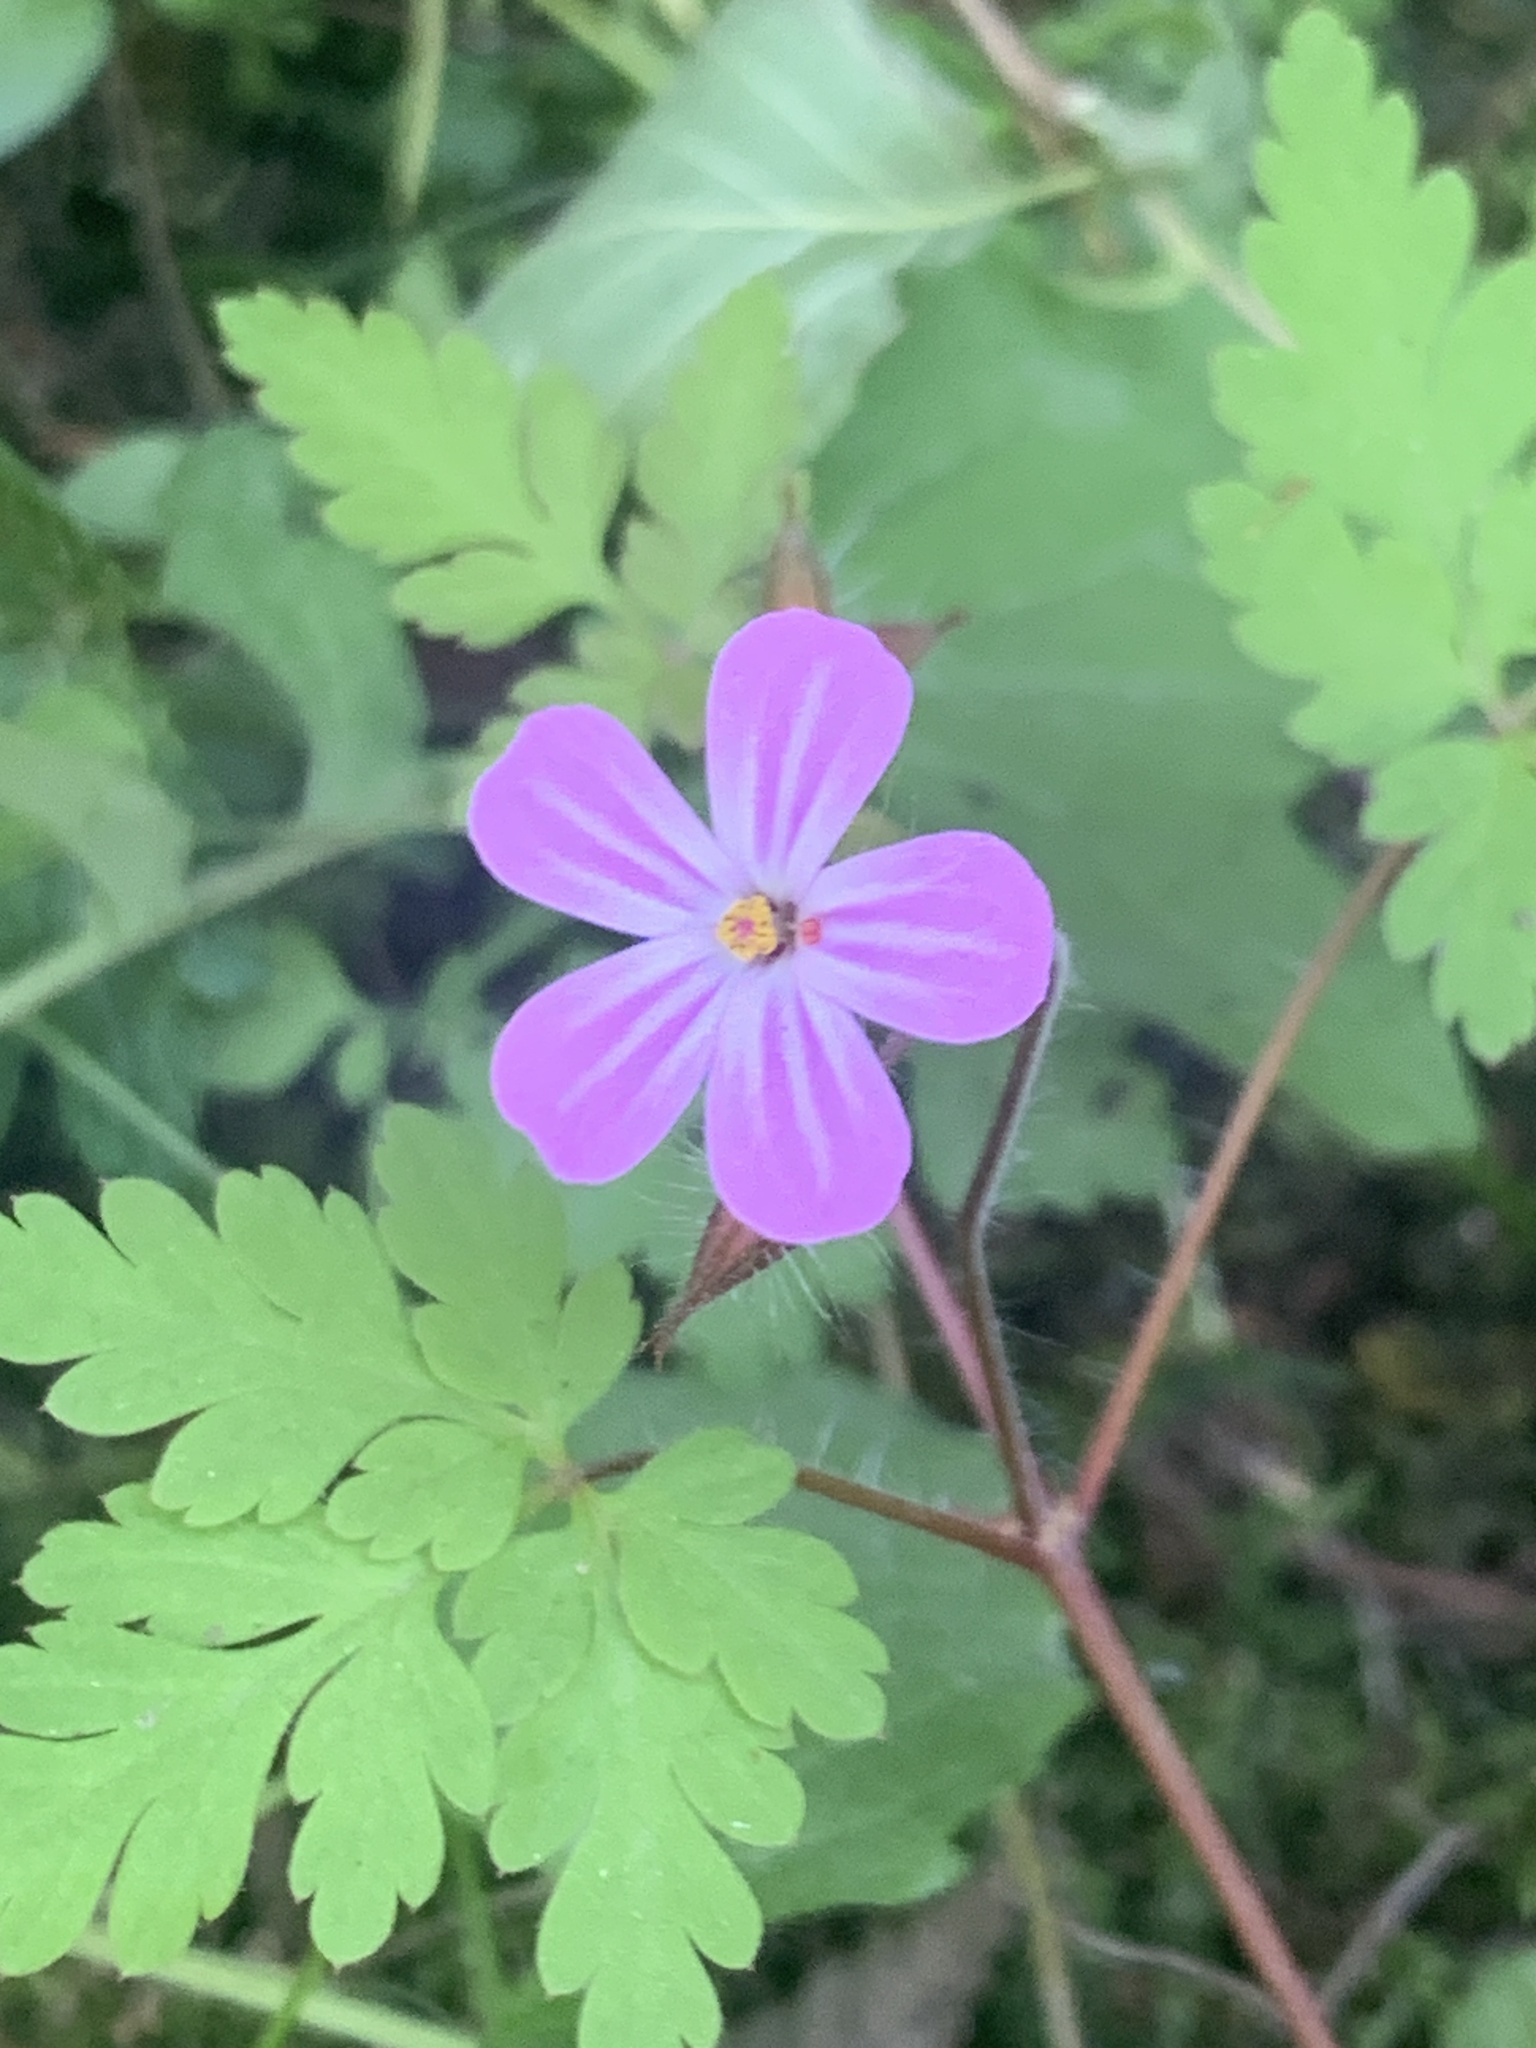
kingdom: Plantae
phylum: Tracheophyta
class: Magnoliopsida
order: Geraniales
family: Geraniaceae
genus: Geranium
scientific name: Geranium robertianum
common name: Herb-robert
